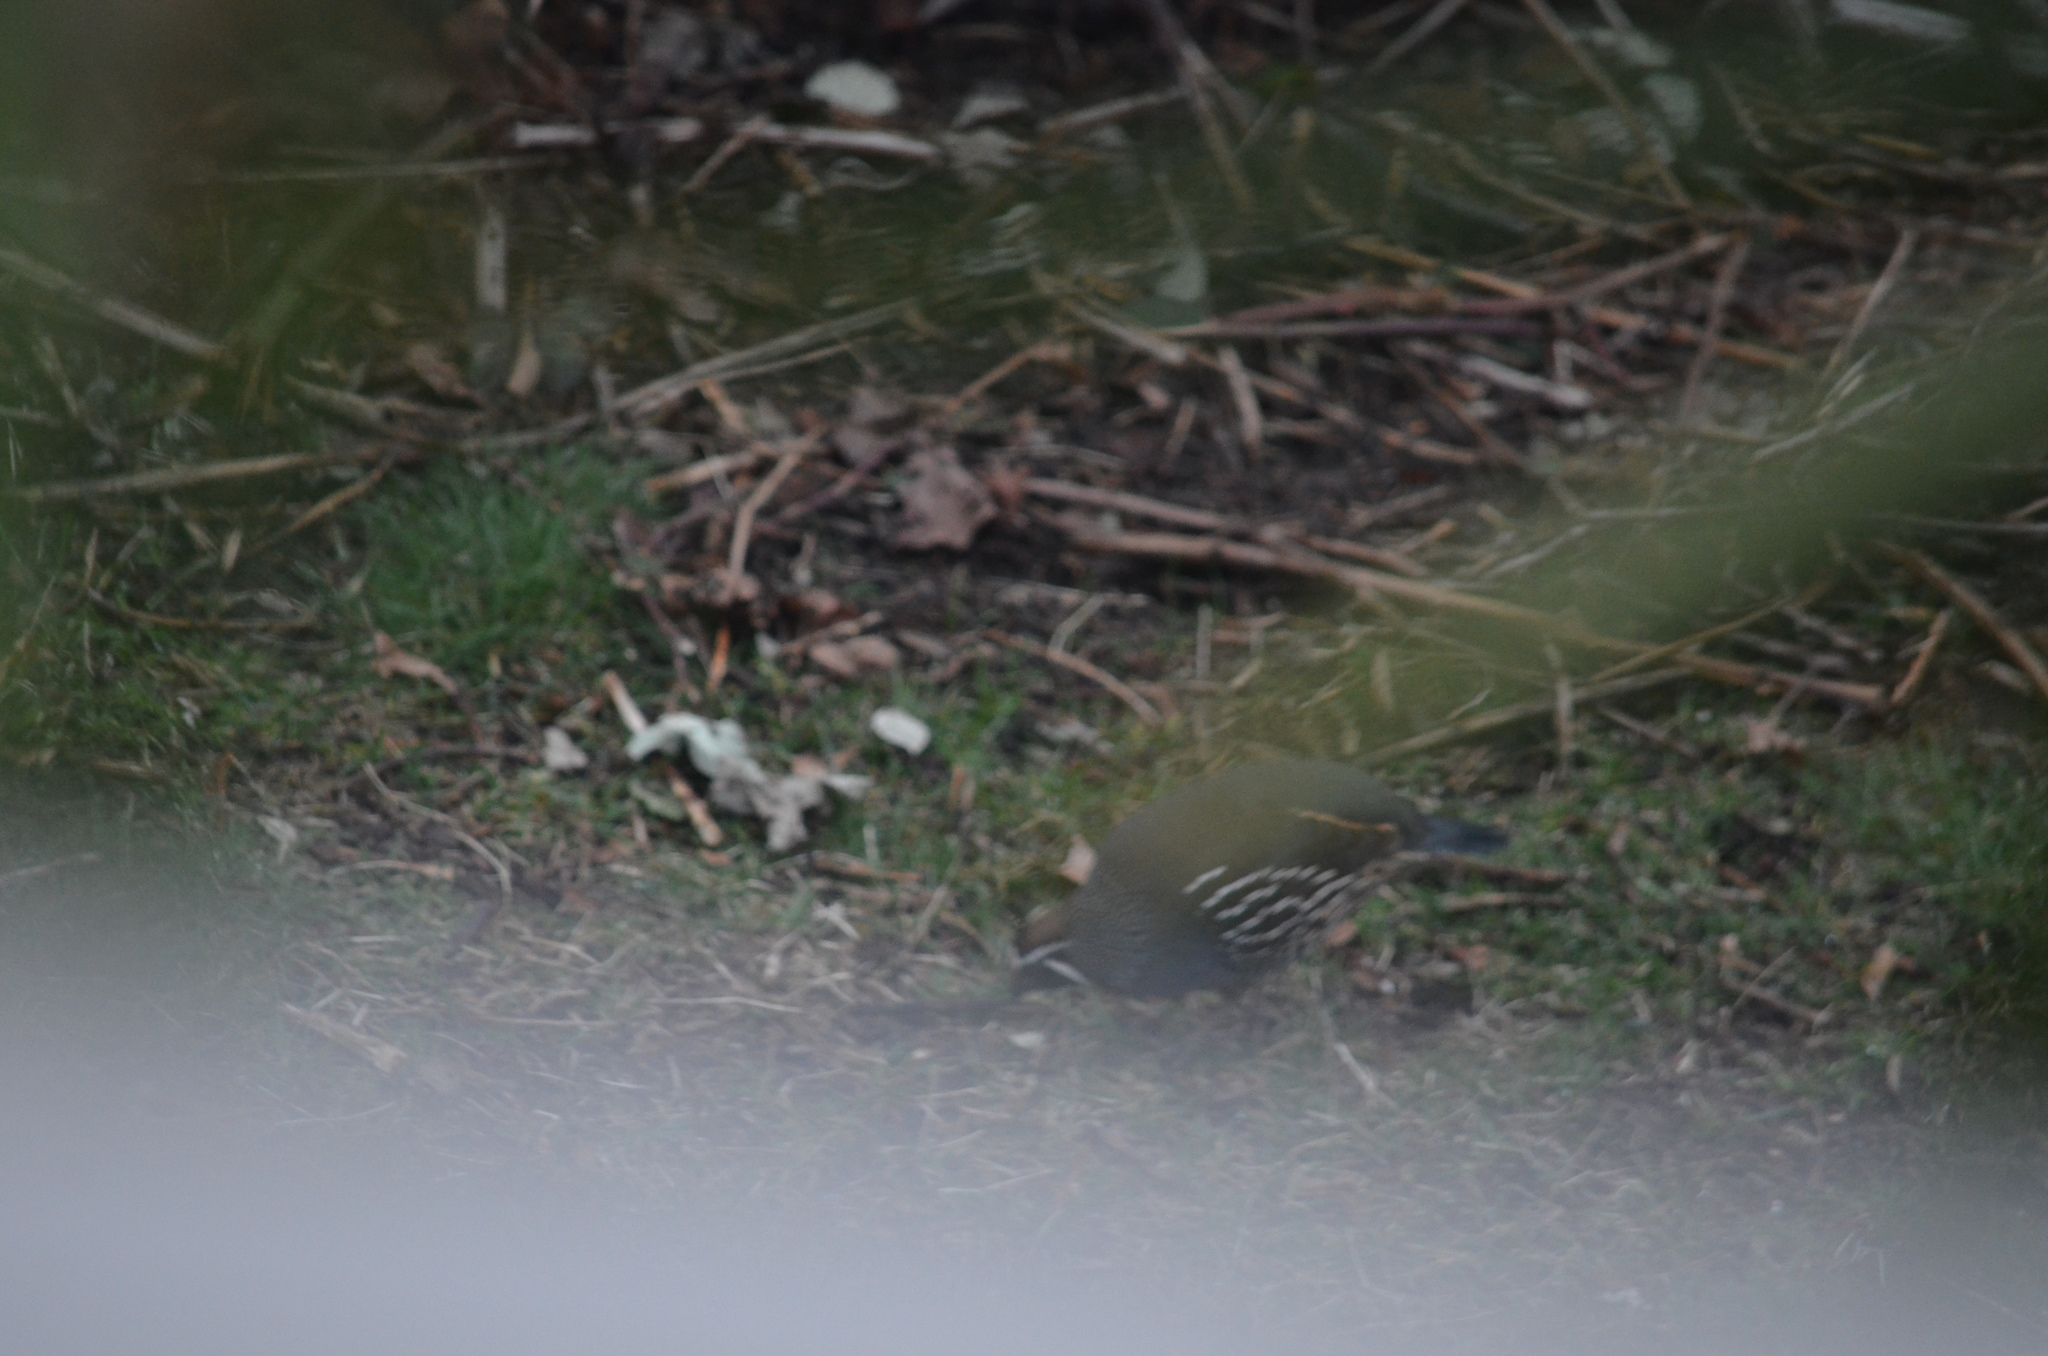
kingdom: Animalia
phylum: Chordata
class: Aves
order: Galliformes
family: Odontophoridae
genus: Callipepla
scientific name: Callipepla californica
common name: California quail
